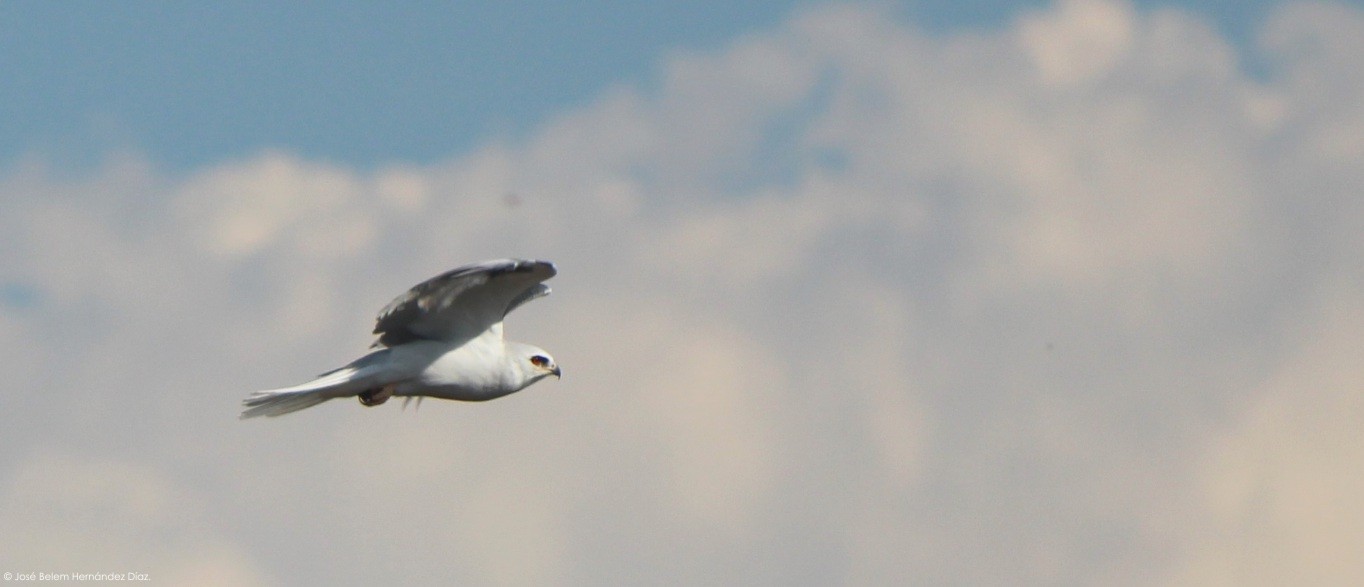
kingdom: Animalia
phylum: Chordata
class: Aves
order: Accipitriformes
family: Accipitridae
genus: Elanus
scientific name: Elanus leucurus
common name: White-tailed kite
